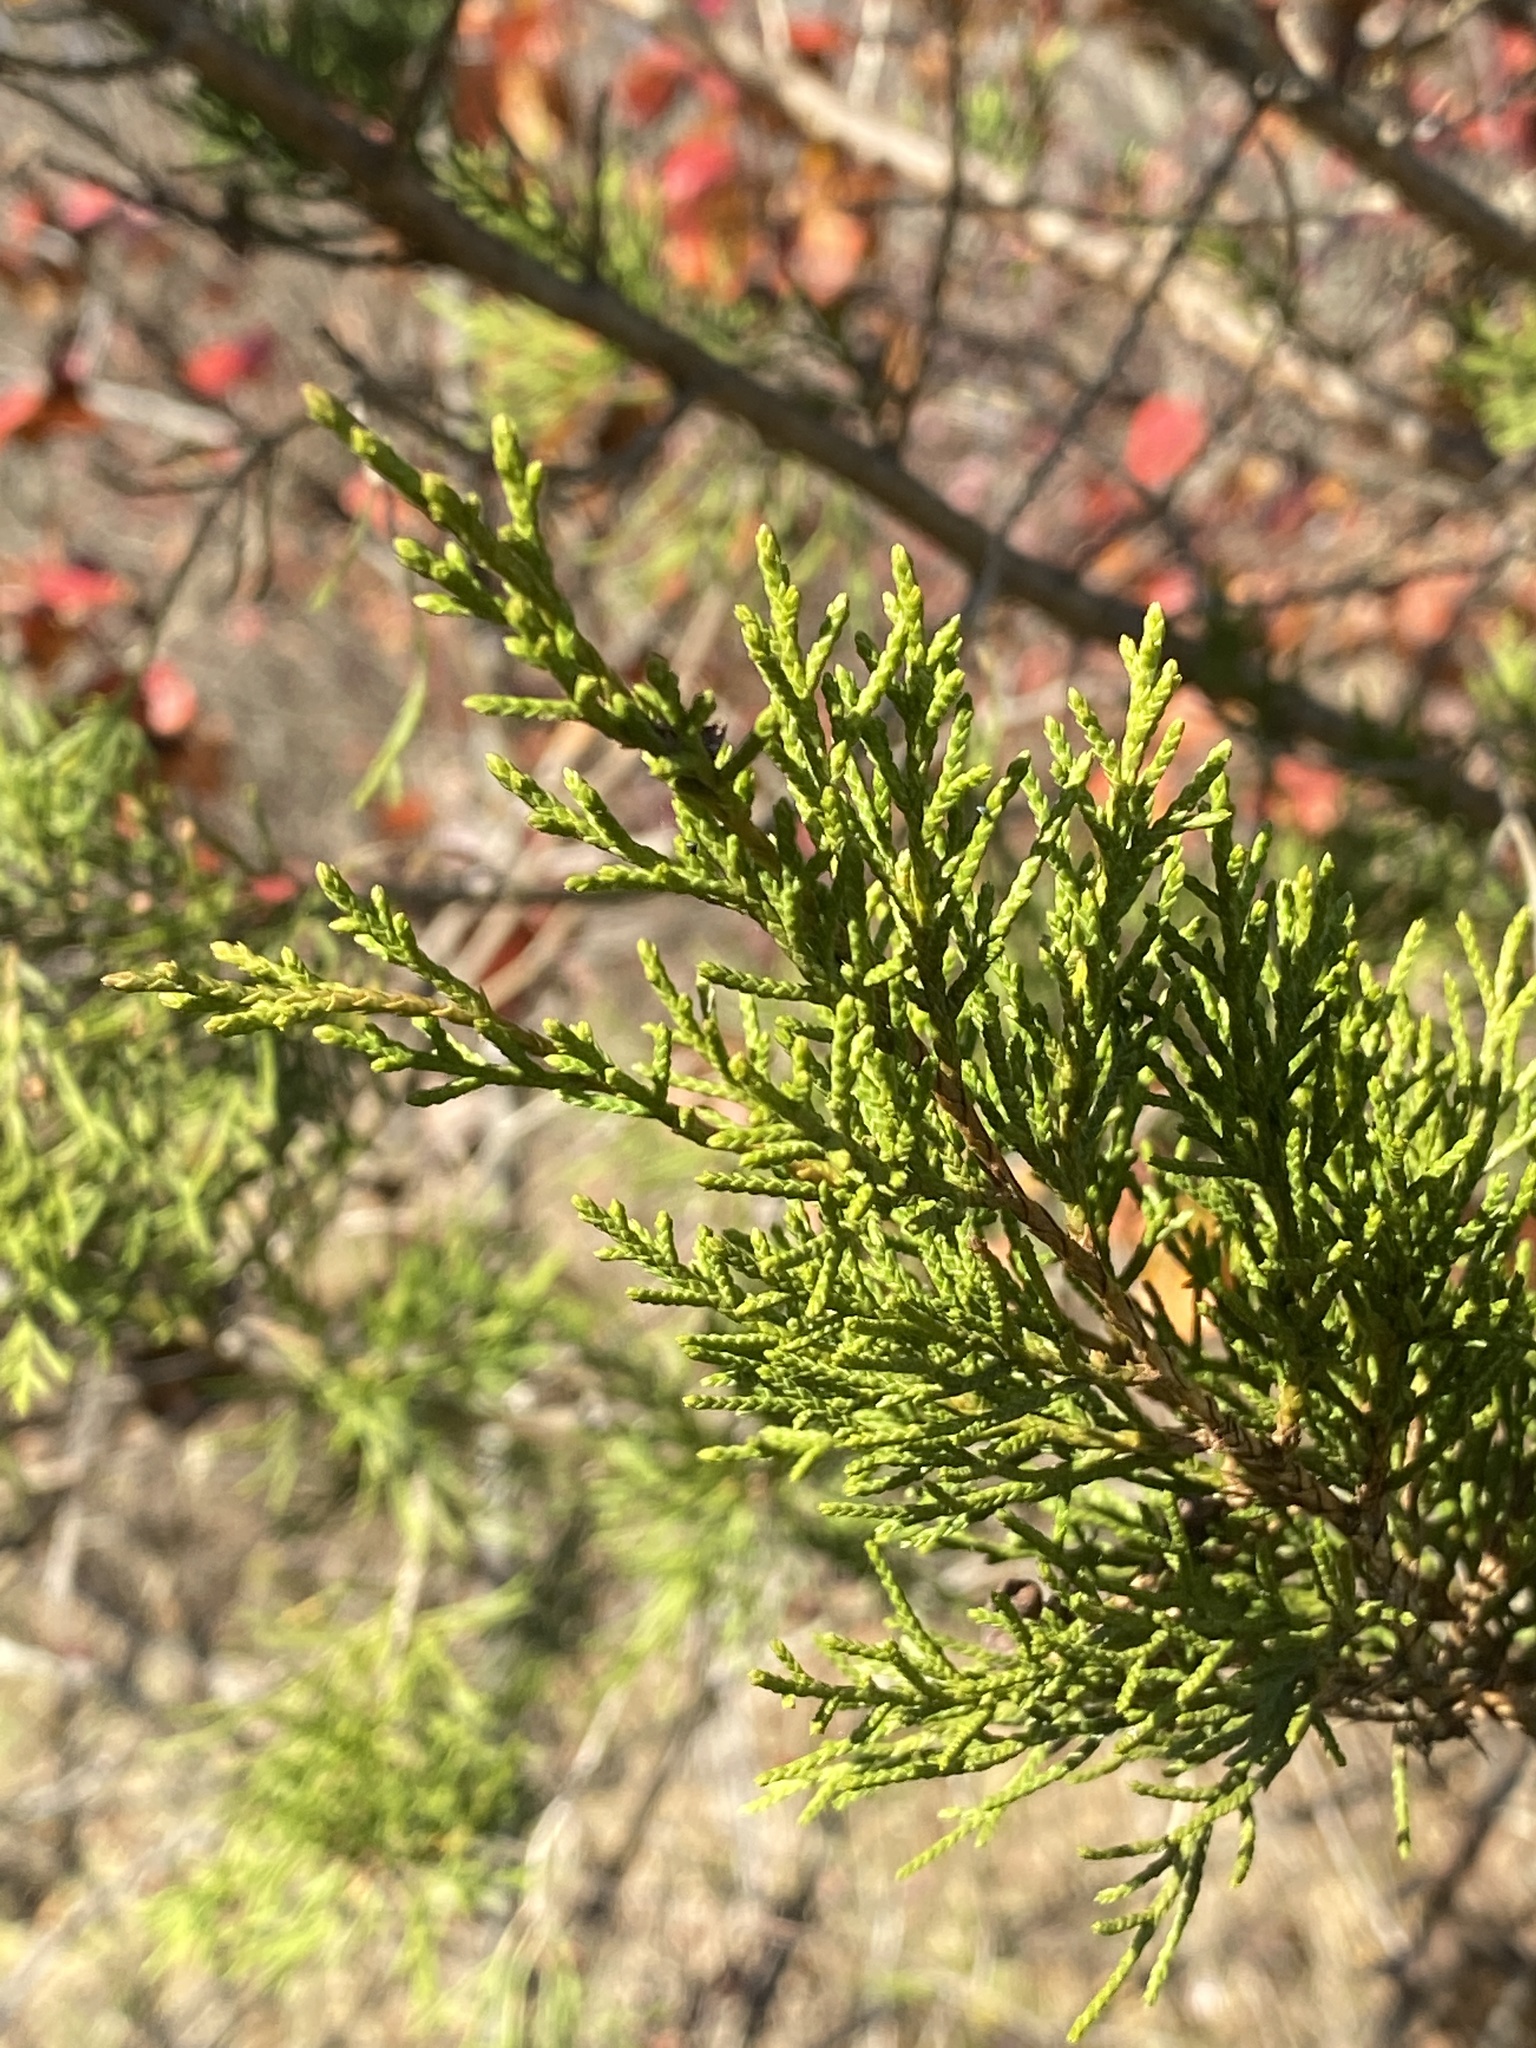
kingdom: Plantae
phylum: Tracheophyta
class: Pinopsida
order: Pinales
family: Cupressaceae
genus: Juniperus
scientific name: Juniperus virginiana
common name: Red juniper
